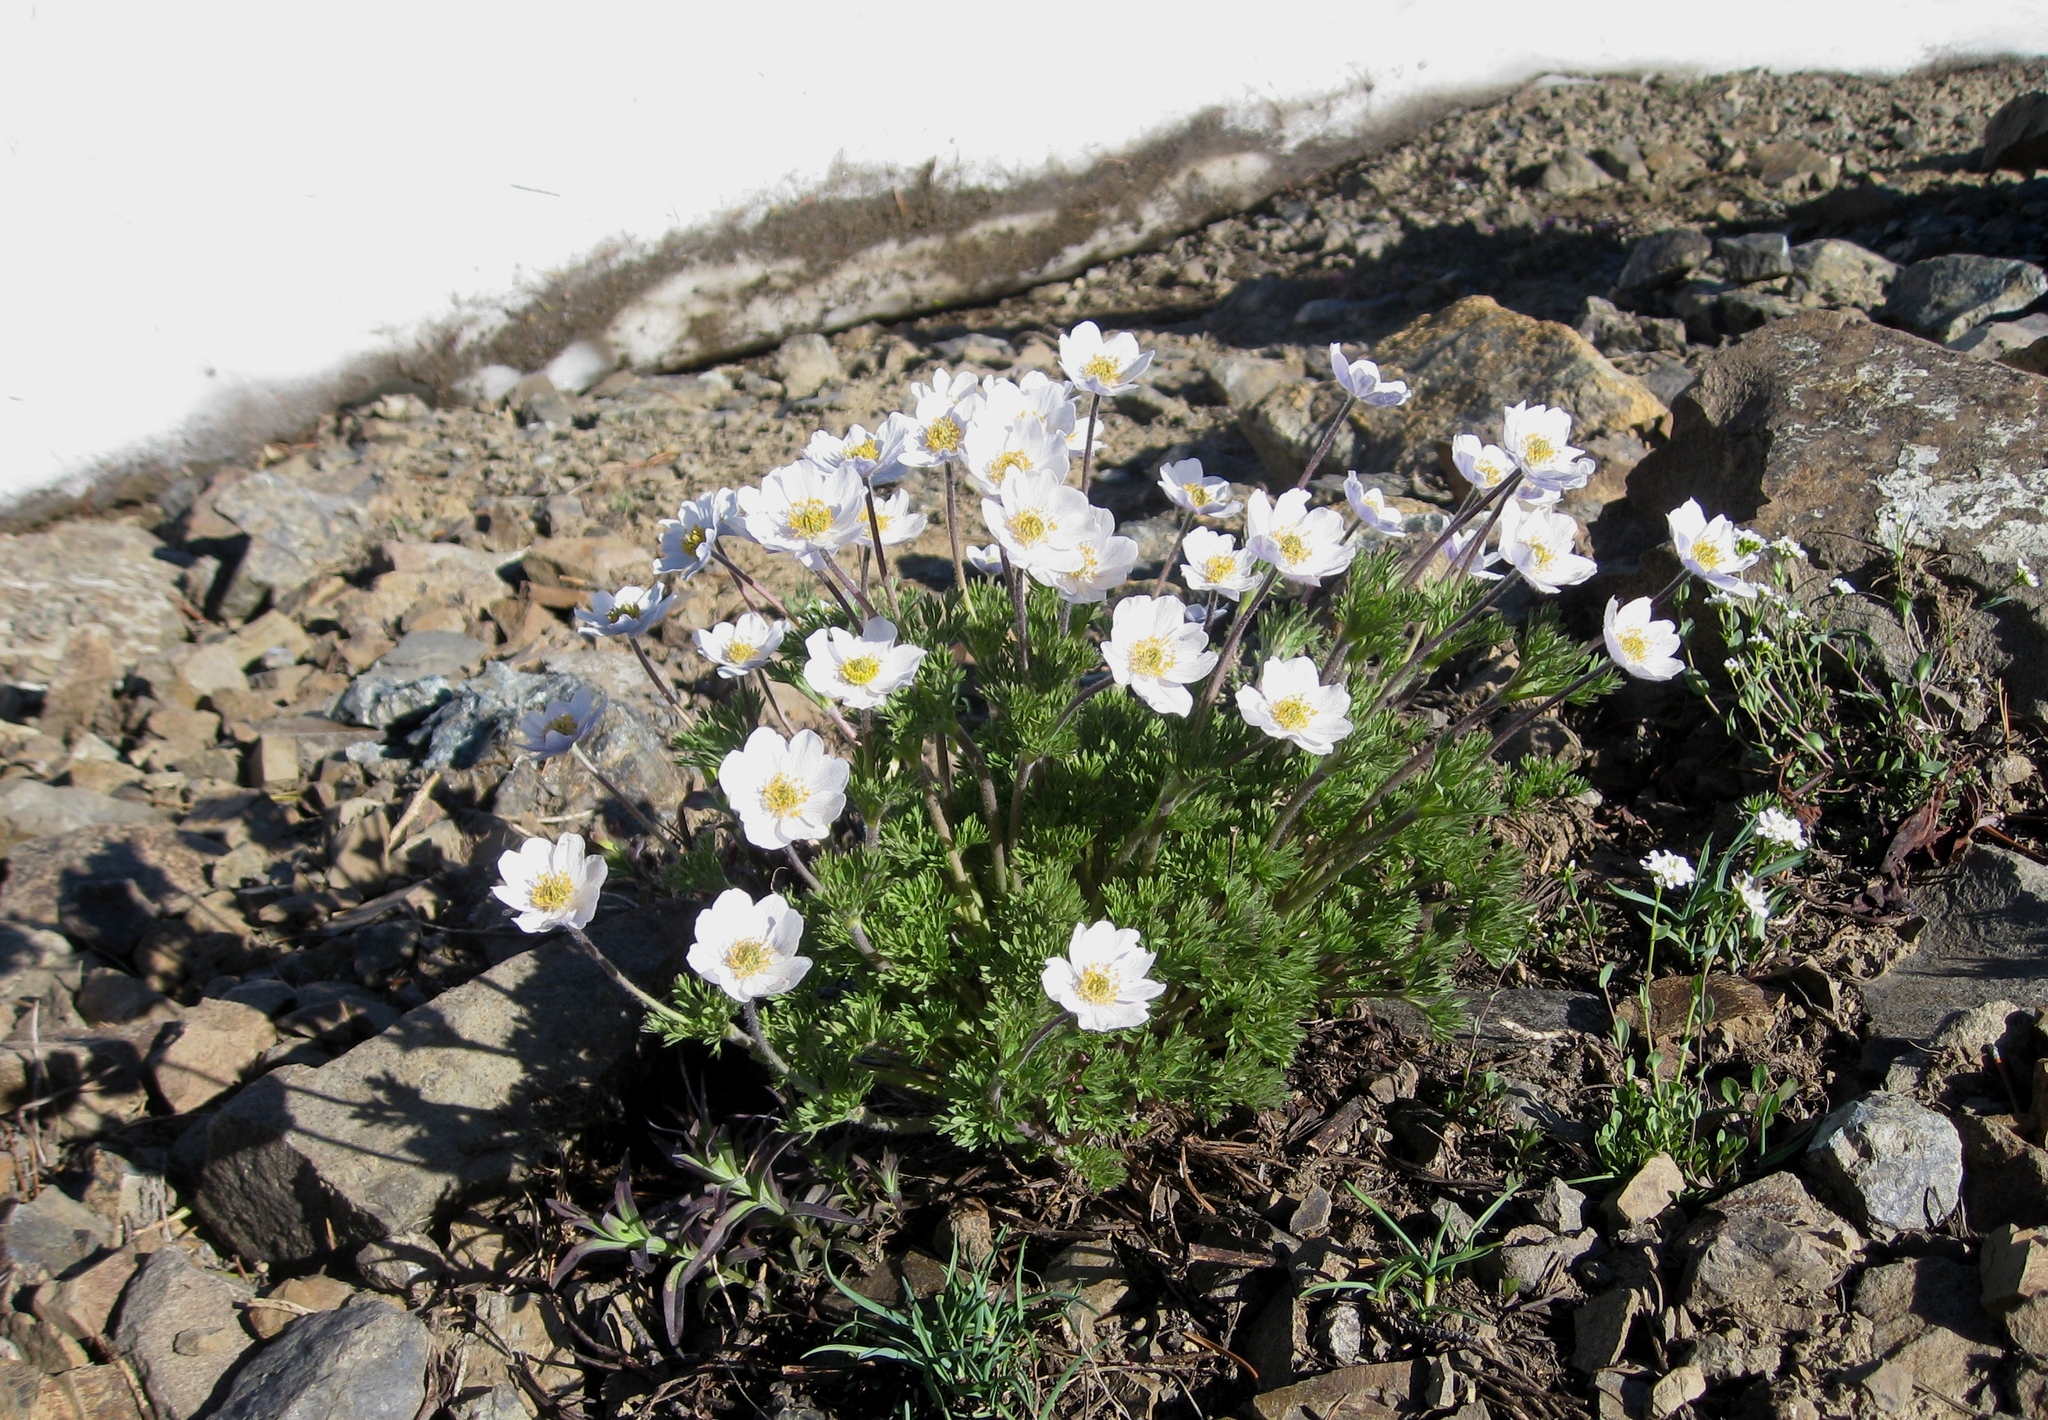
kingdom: Plantae
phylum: Tracheophyta
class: Magnoliopsida
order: Ranunculales
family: Ranunculaceae
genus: Anemone
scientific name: Anemone drummondii
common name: Drummond's anemone
